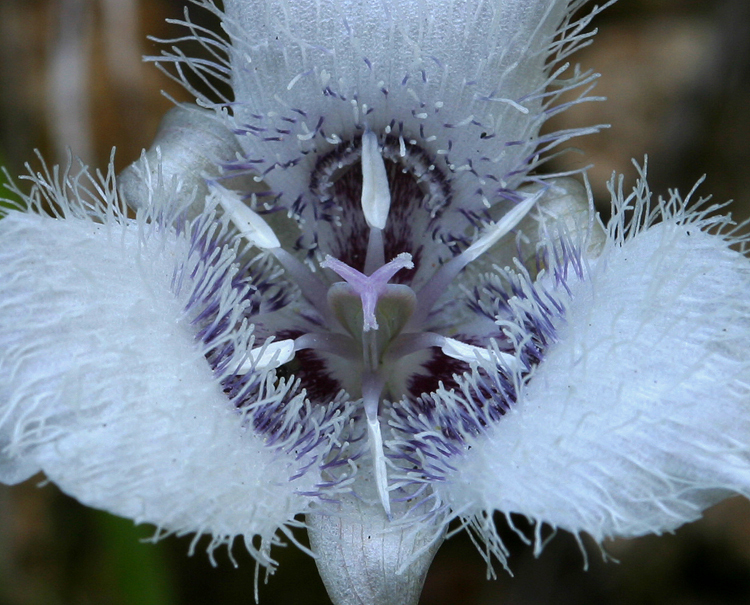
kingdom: Plantae
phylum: Tracheophyta
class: Liliopsida
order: Liliales
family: Liliaceae
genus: Calochortus
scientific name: Calochortus tolmiei
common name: Pussy-ears
